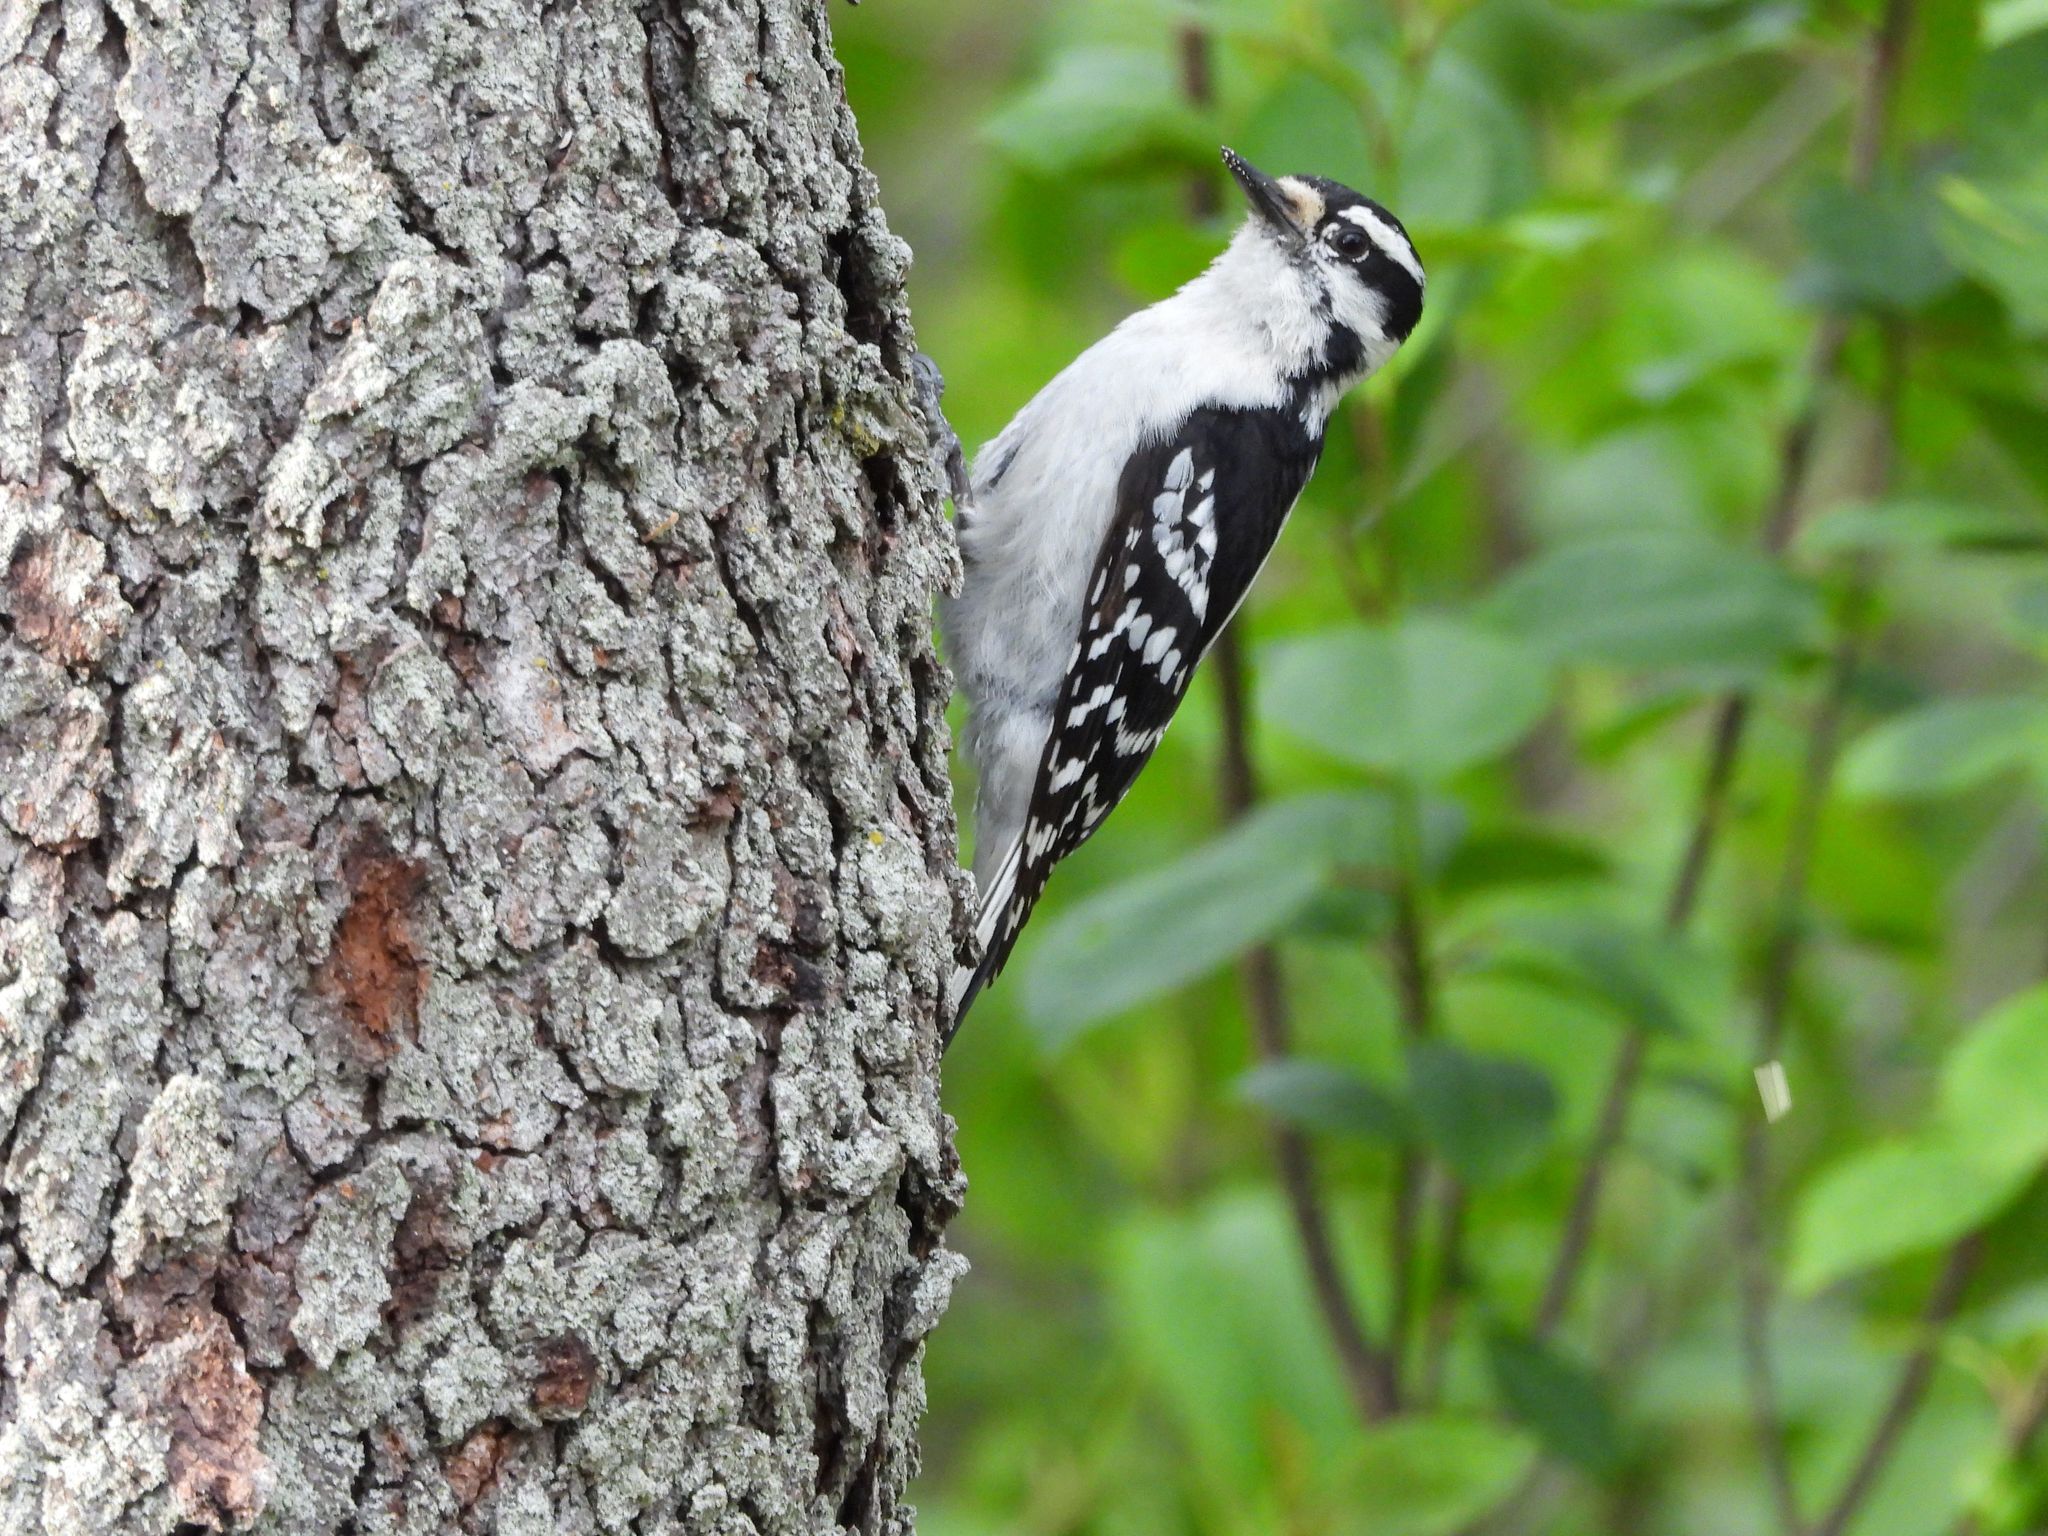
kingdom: Animalia
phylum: Chordata
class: Aves
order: Piciformes
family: Picidae
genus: Dryobates
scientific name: Dryobates pubescens
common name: Downy woodpecker
